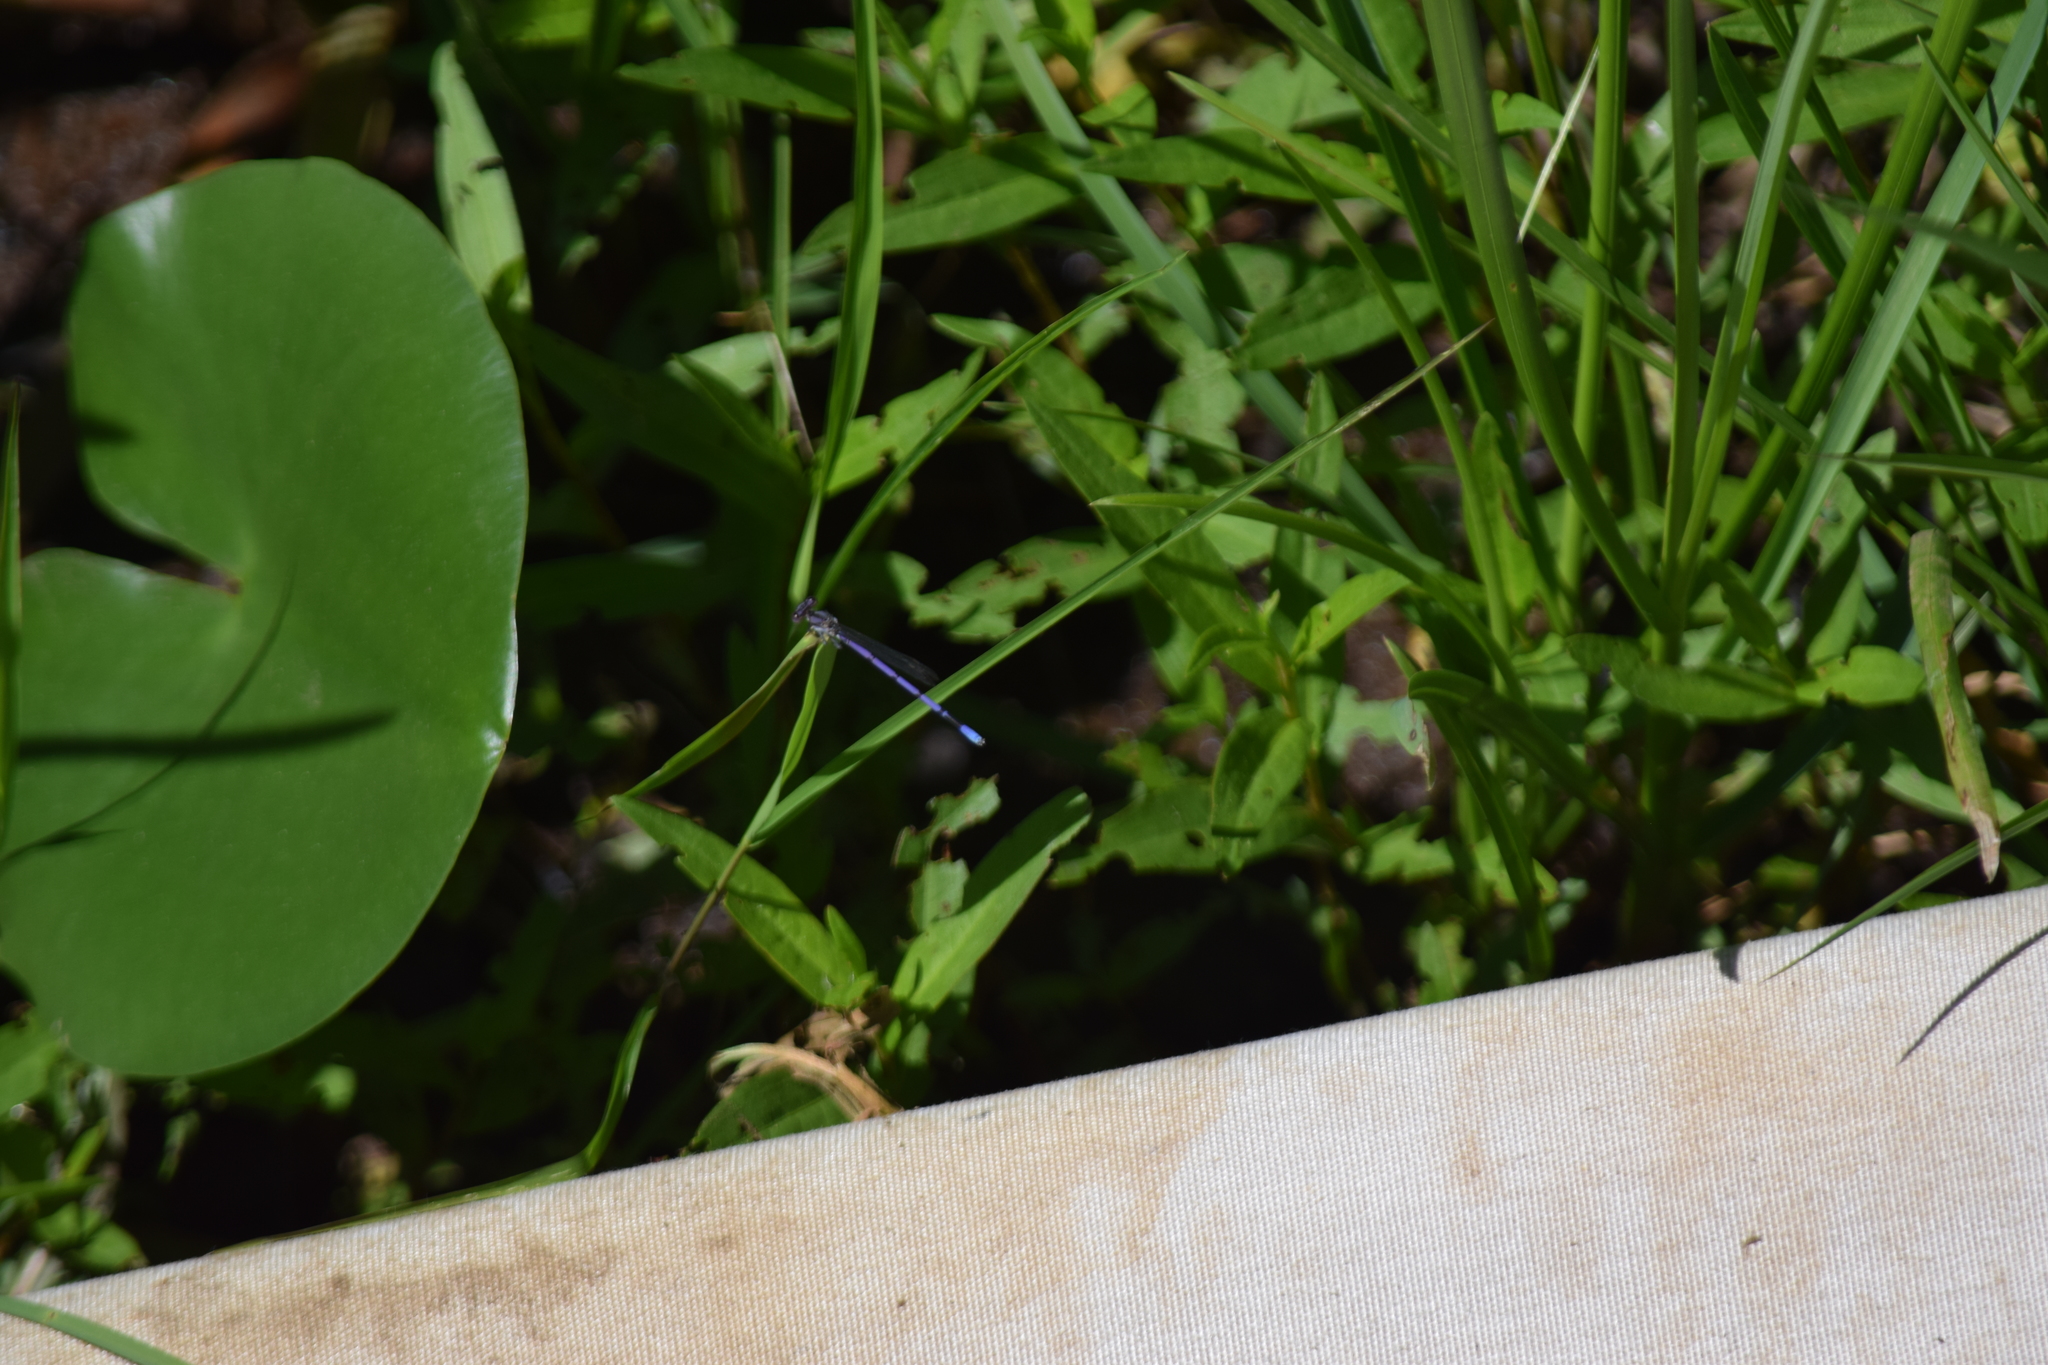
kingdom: Animalia
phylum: Arthropoda
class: Insecta
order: Odonata
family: Coenagrionidae
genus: Argia
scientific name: Argia fumipennis
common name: Variable dancer
